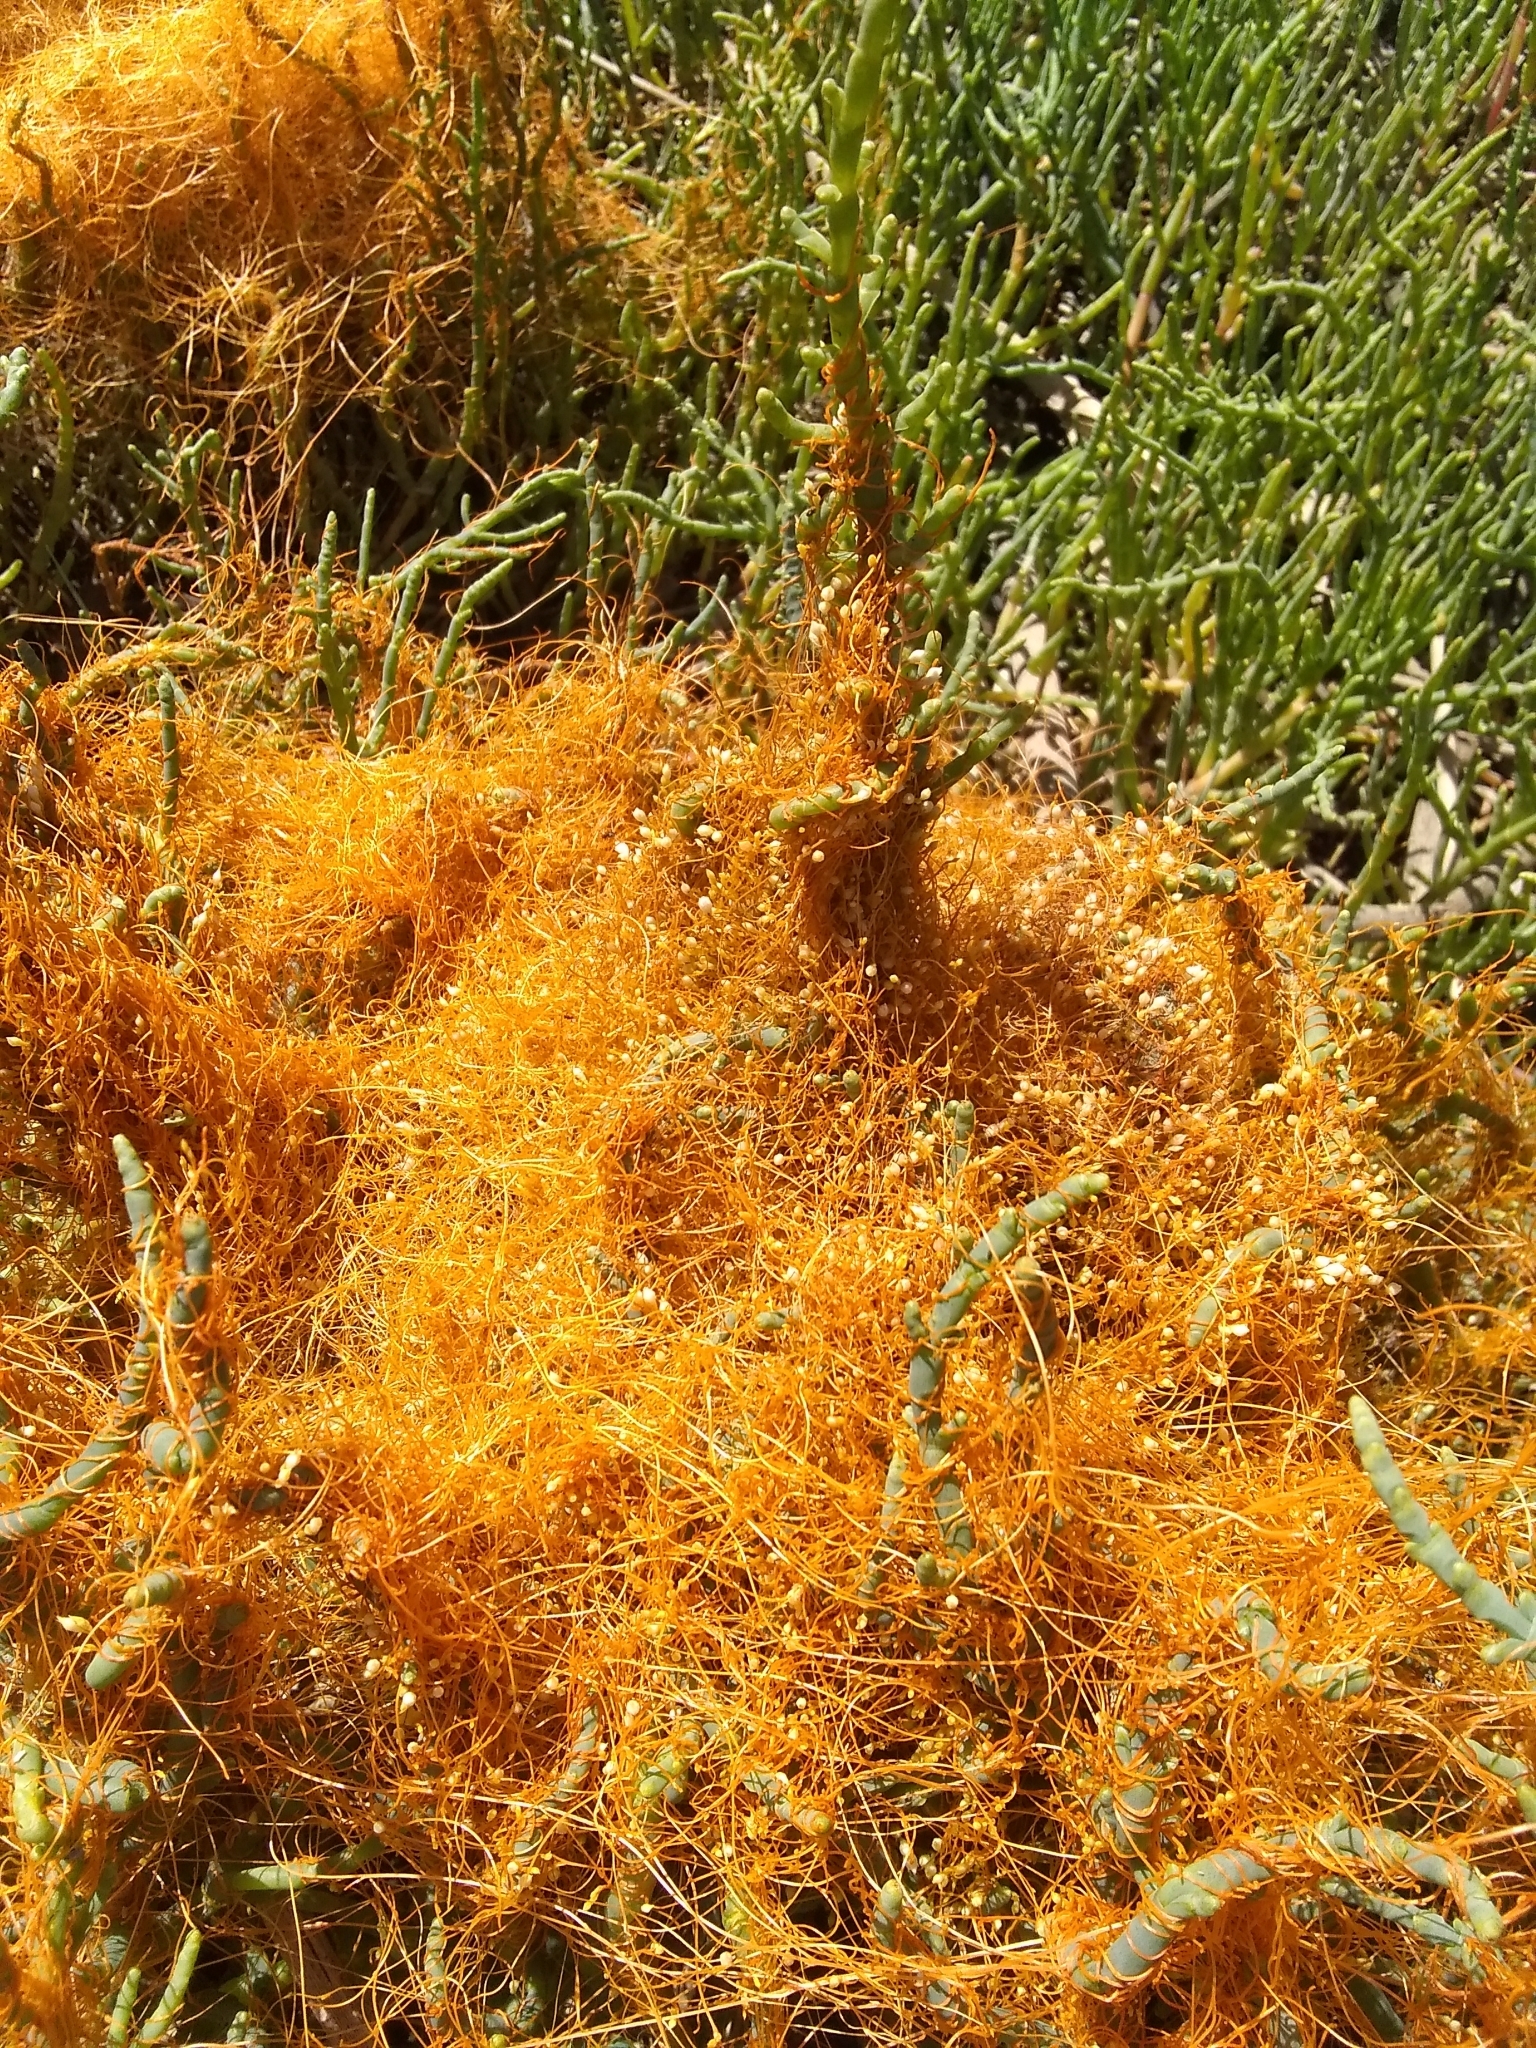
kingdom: Plantae
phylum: Tracheophyta
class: Magnoliopsida
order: Solanales
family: Convolvulaceae
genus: Cuscuta
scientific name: Cuscuta pacifica
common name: Large saltmarsh dodder
